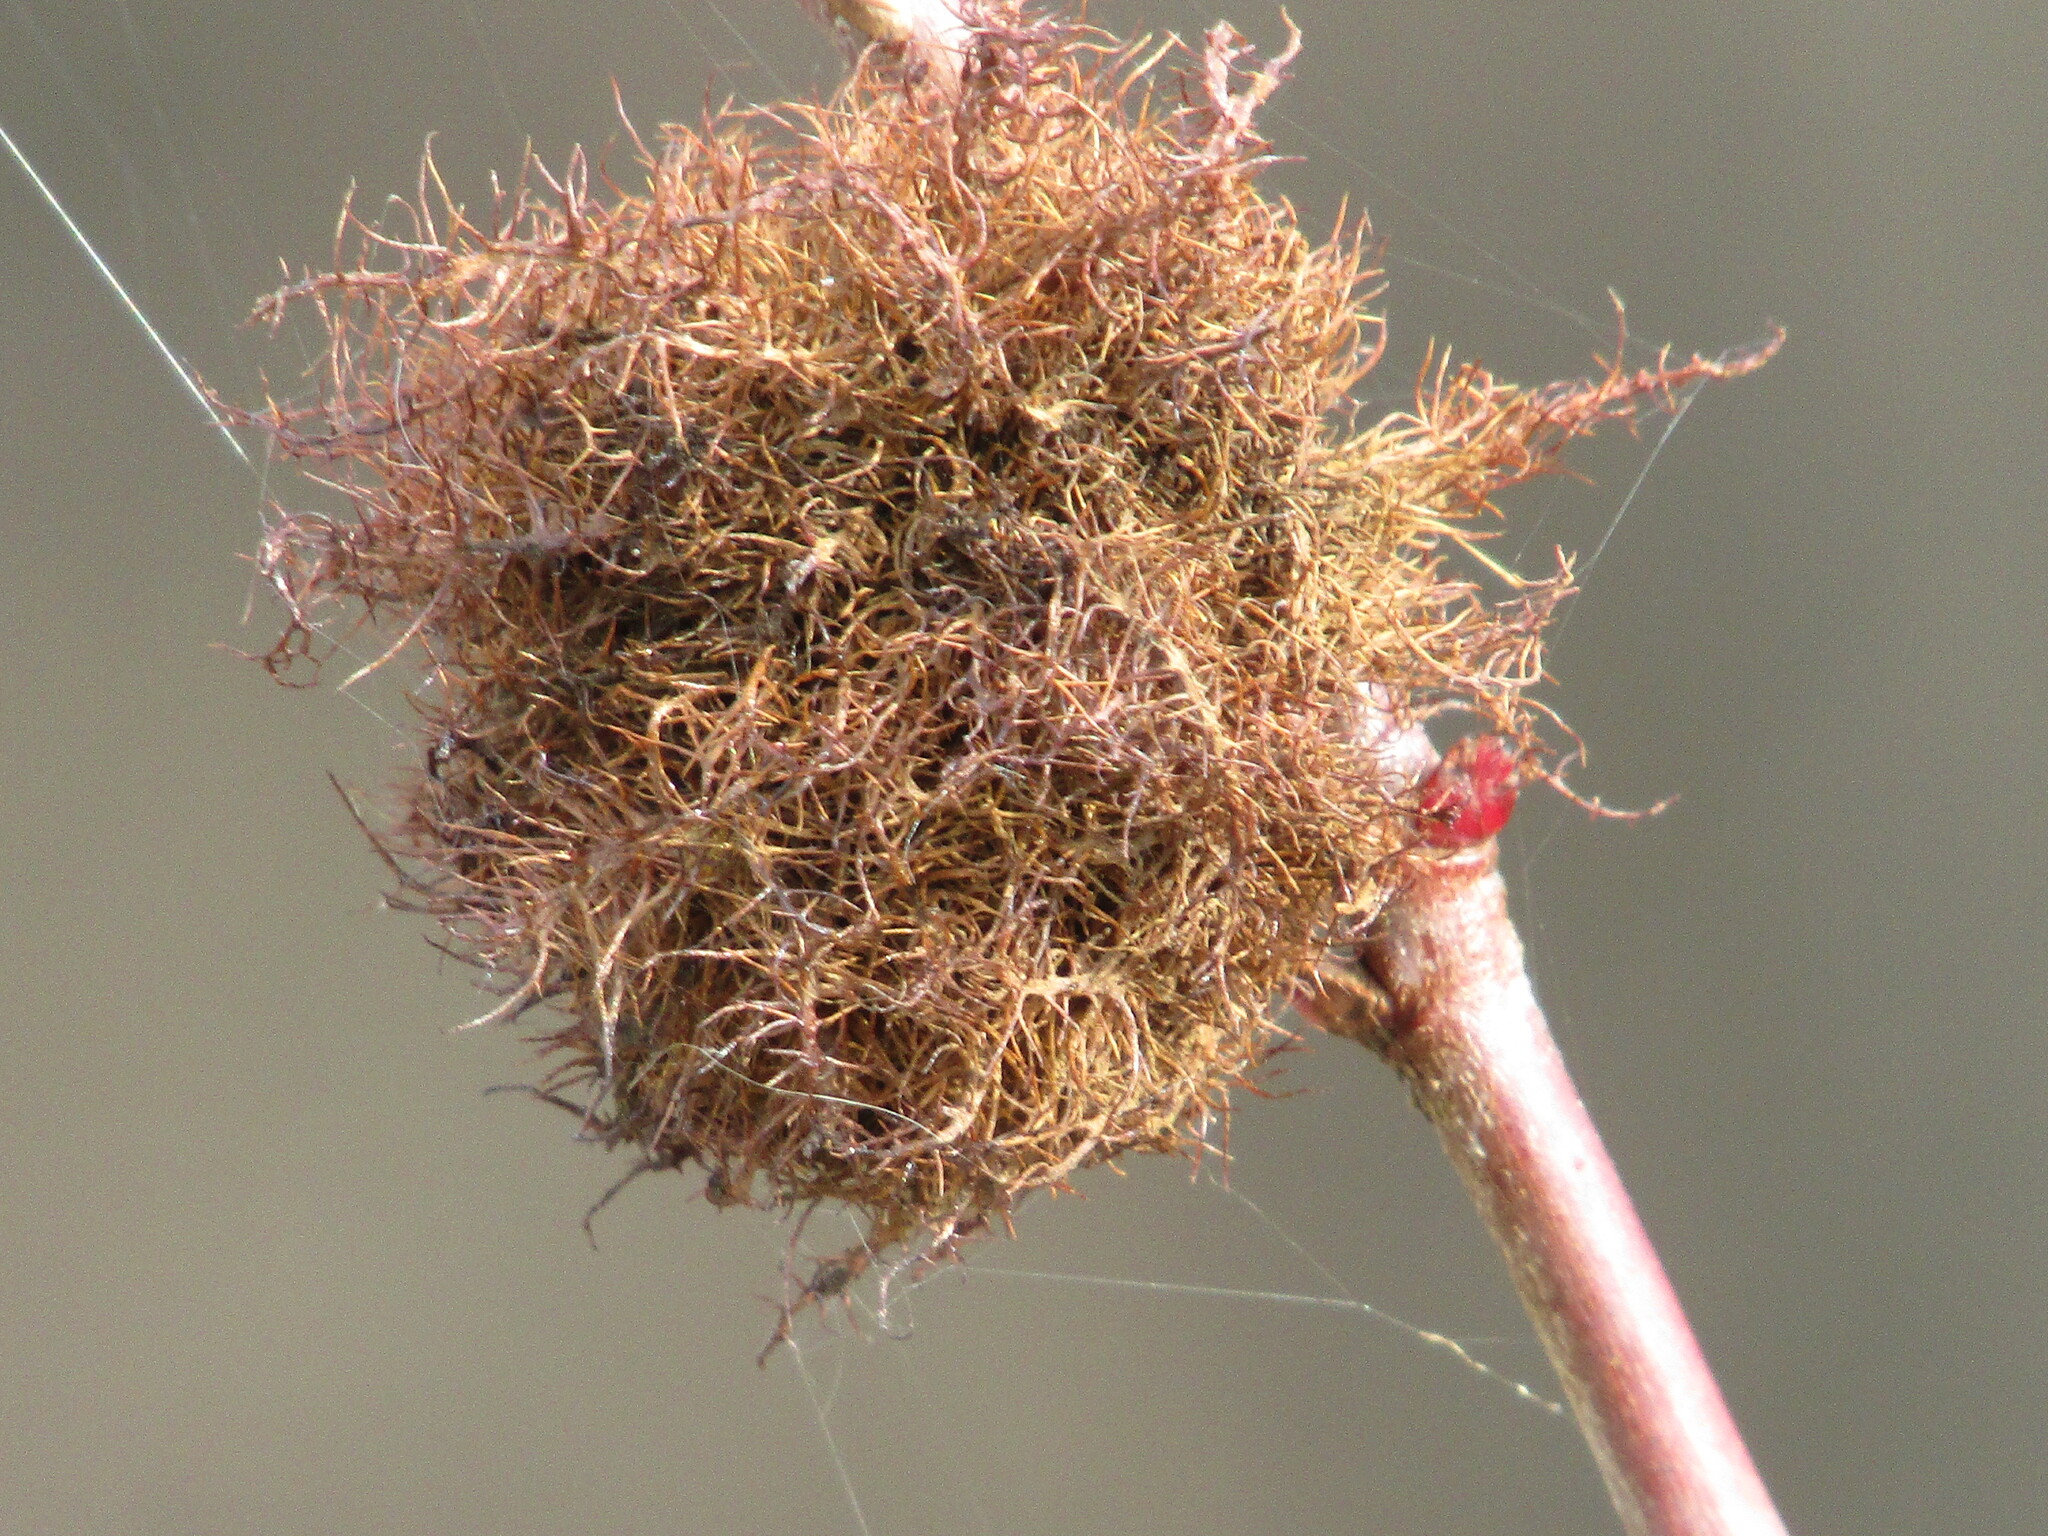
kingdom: Animalia
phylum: Arthropoda
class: Insecta
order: Hymenoptera
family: Cynipidae
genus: Diplolepis
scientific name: Diplolepis rosae
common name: Bedeguar gall
